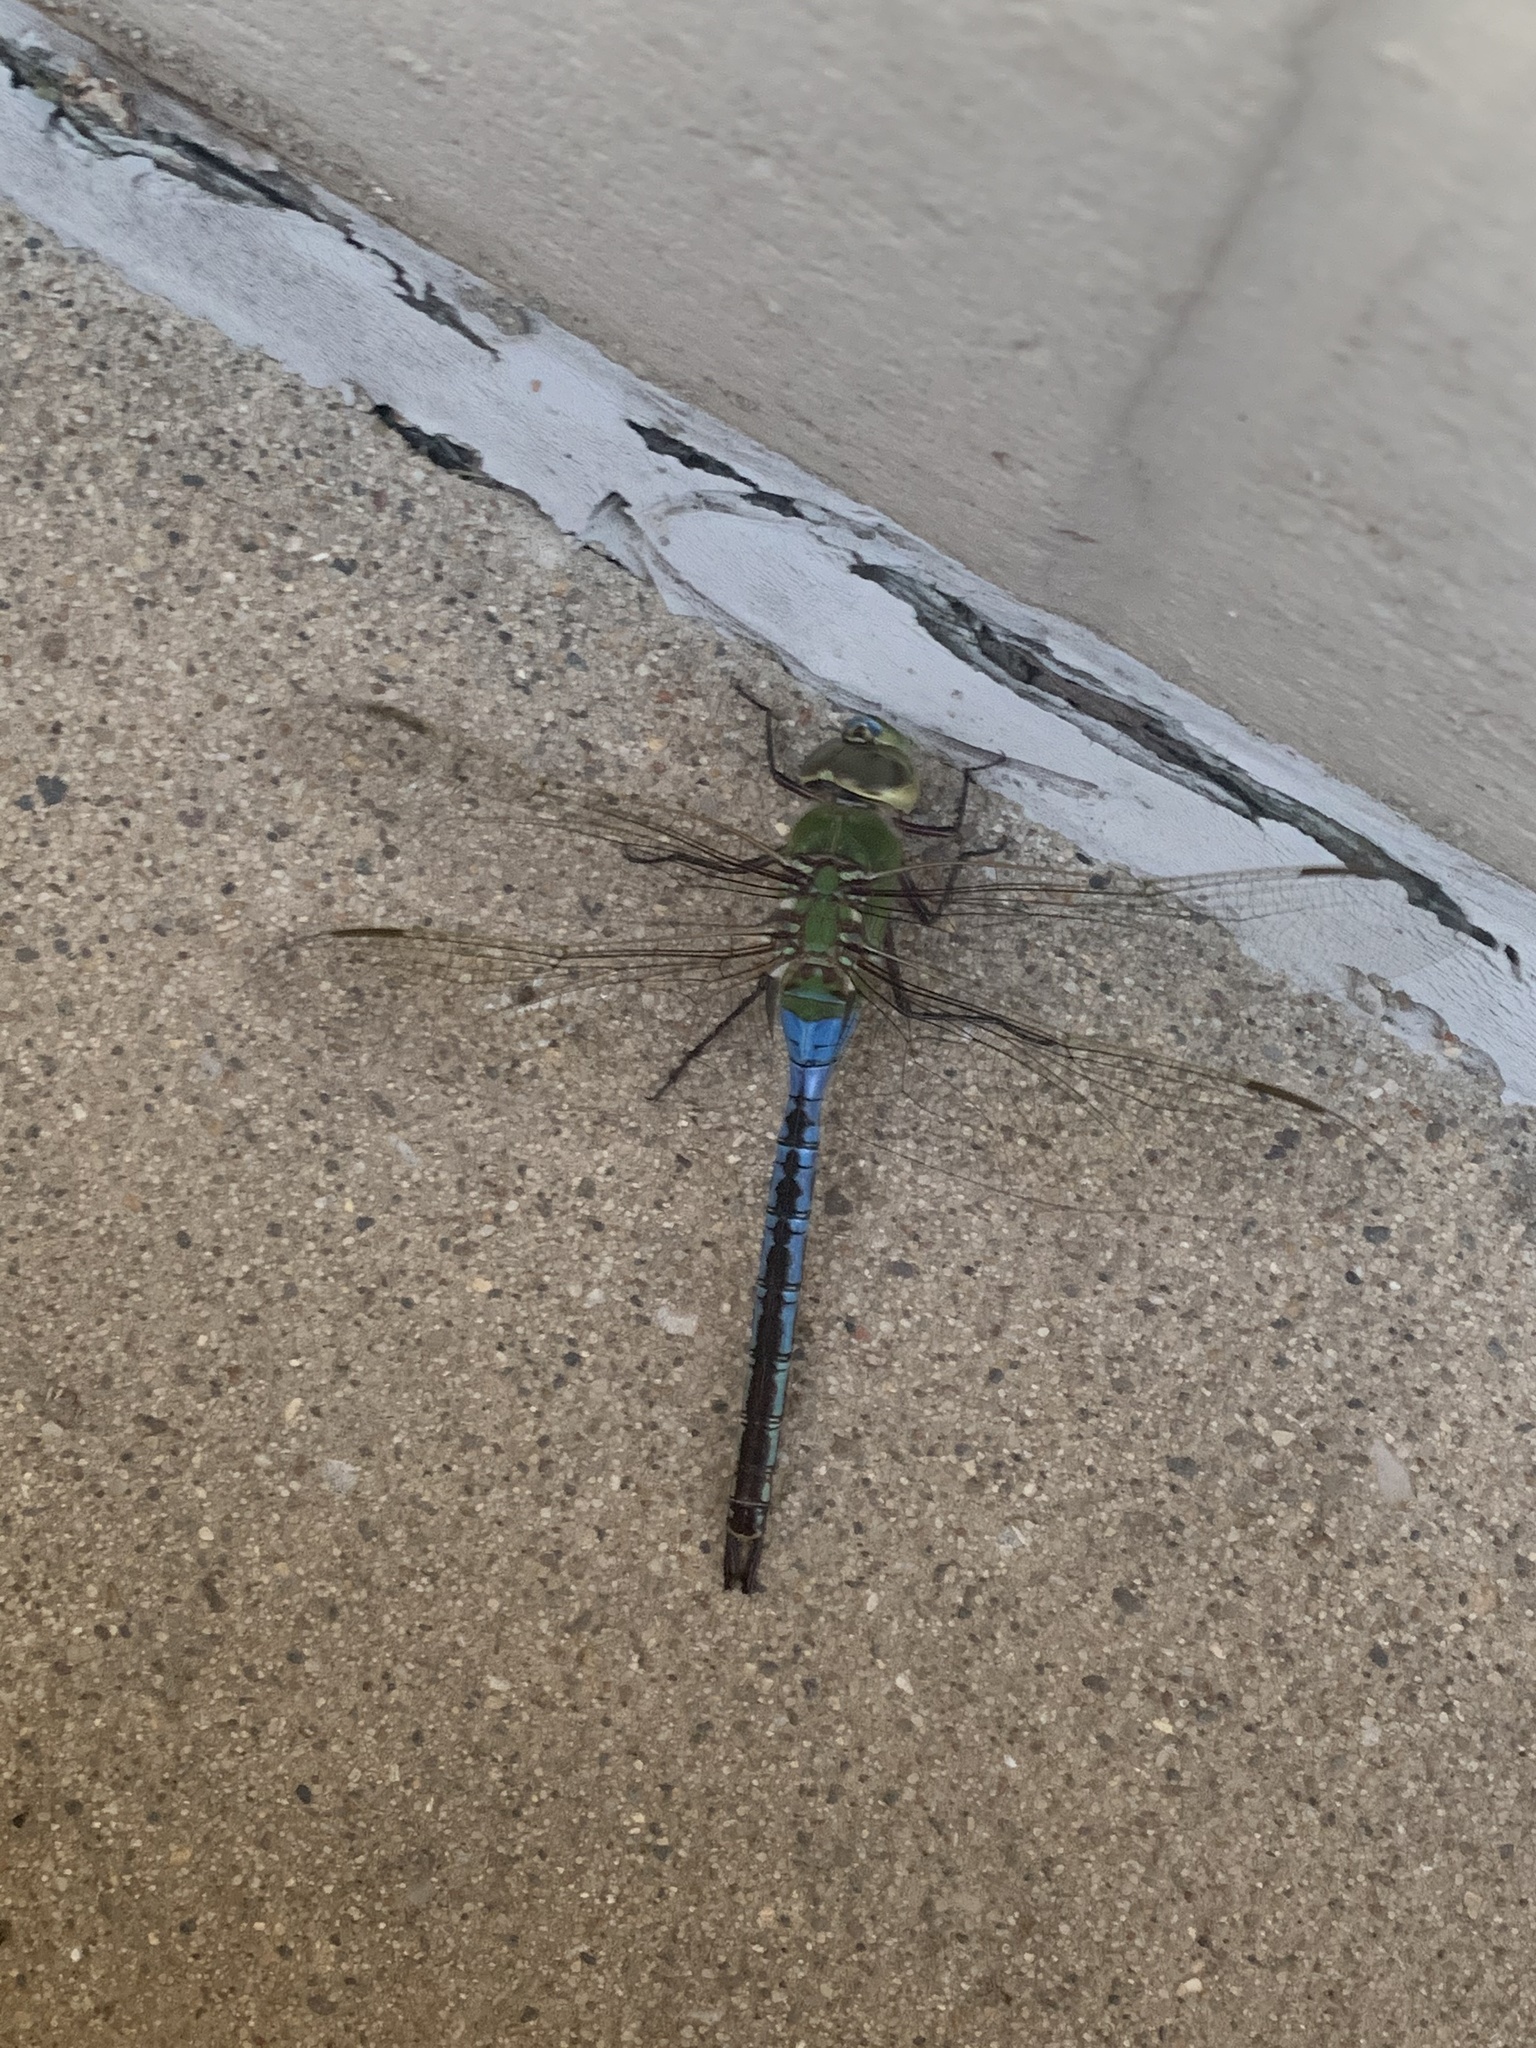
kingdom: Animalia
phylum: Arthropoda
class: Insecta
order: Odonata
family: Aeshnidae
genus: Anax
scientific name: Anax junius
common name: Common green darner
